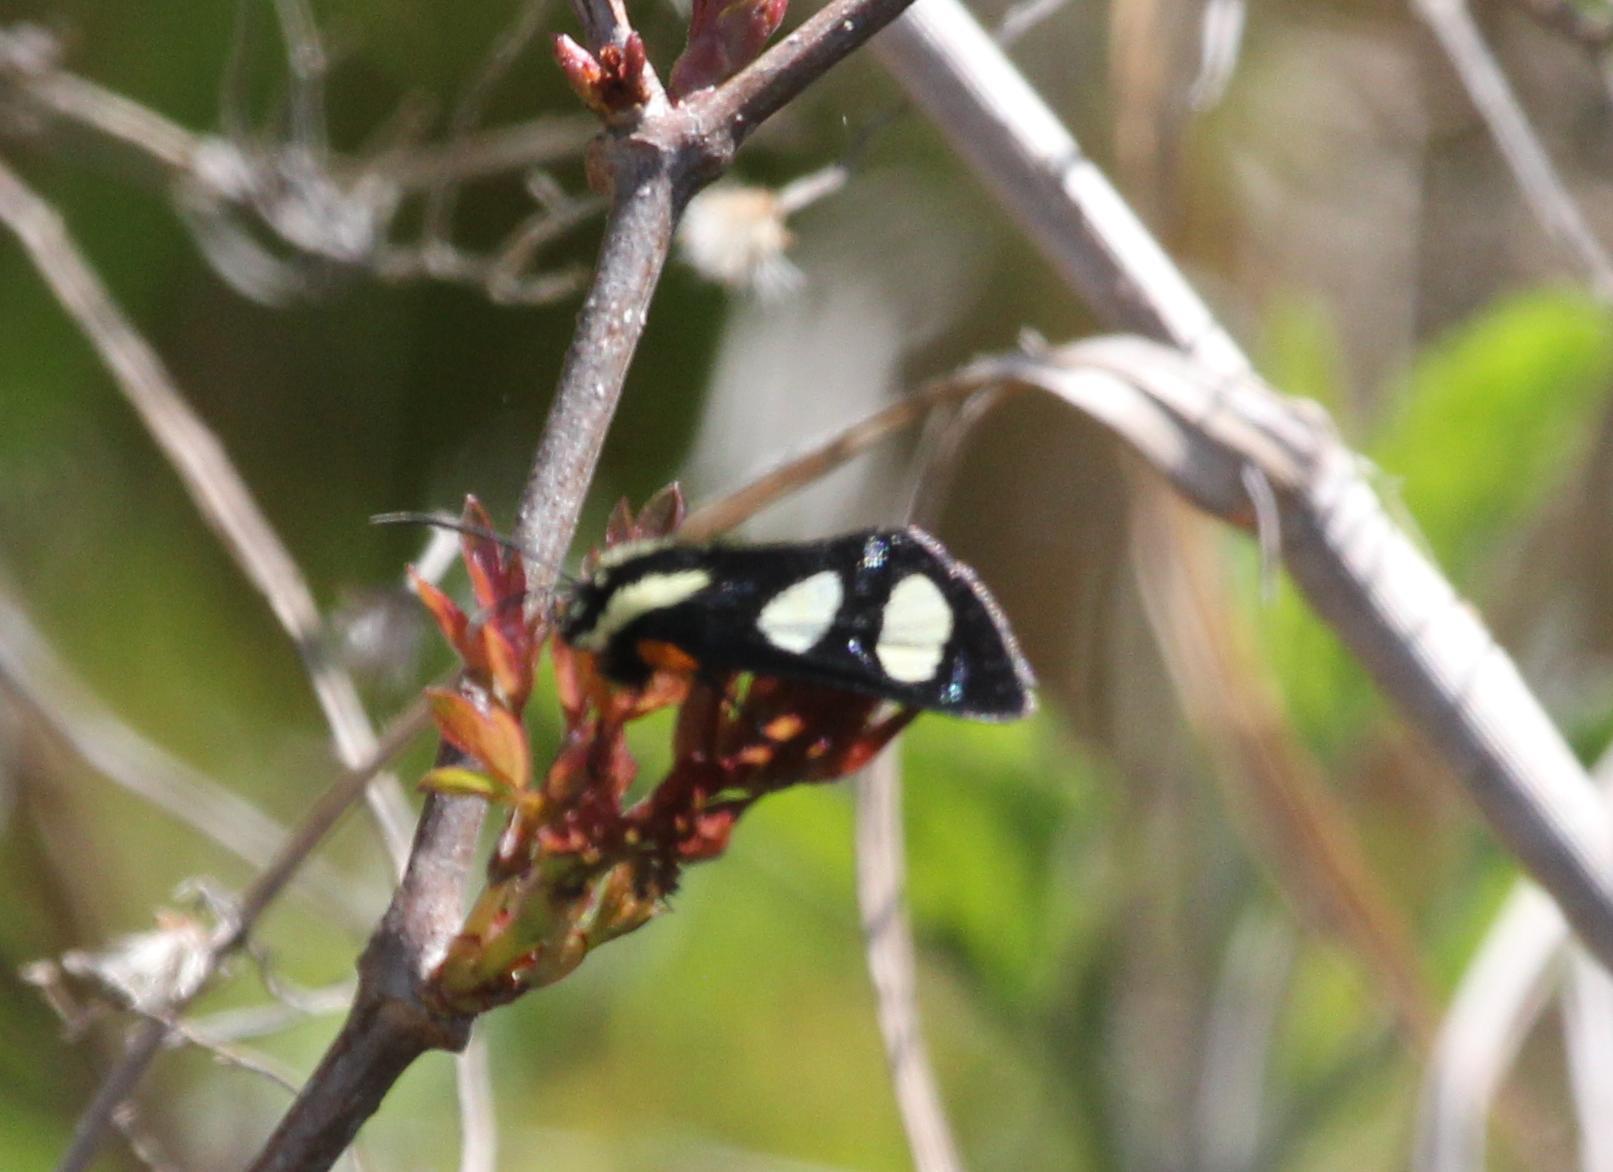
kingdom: Animalia
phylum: Arthropoda
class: Insecta
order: Lepidoptera
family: Noctuidae
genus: Alypia
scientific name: Alypia octomaculata
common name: Eight-spotted forester
